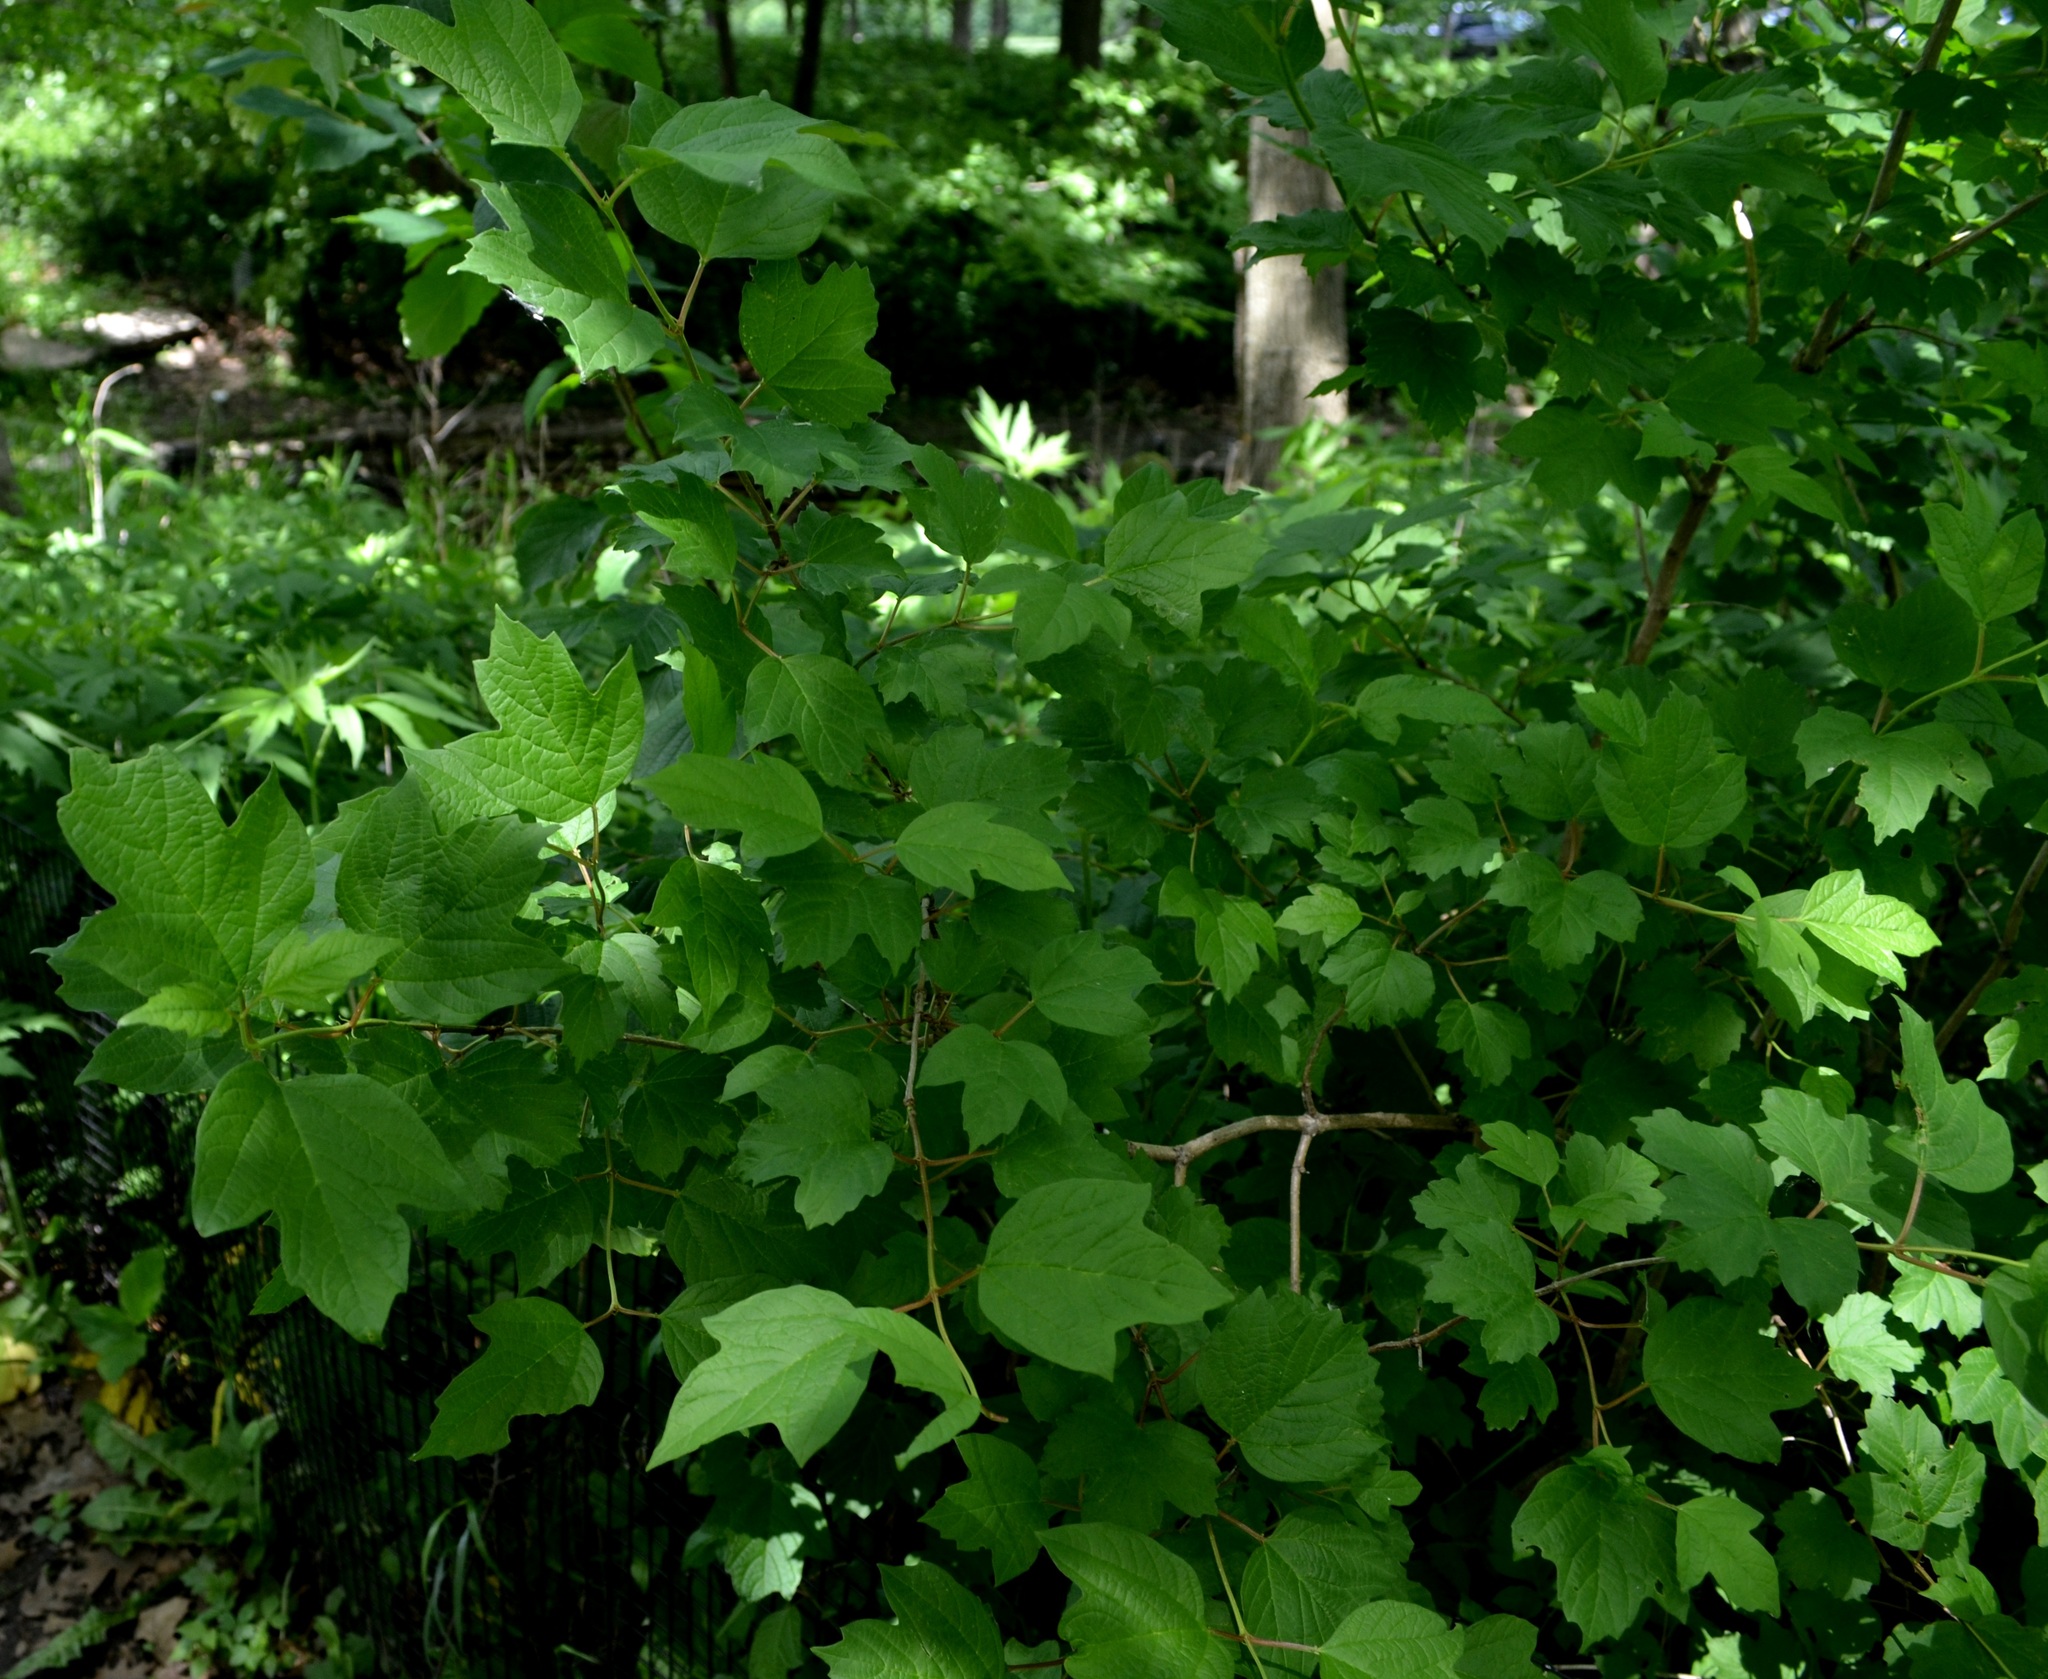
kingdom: Plantae
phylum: Tracheophyta
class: Magnoliopsida
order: Dipsacales
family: Viburnaceae
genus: Viburnum
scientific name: Viburnum opulus
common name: Guelder-rose
